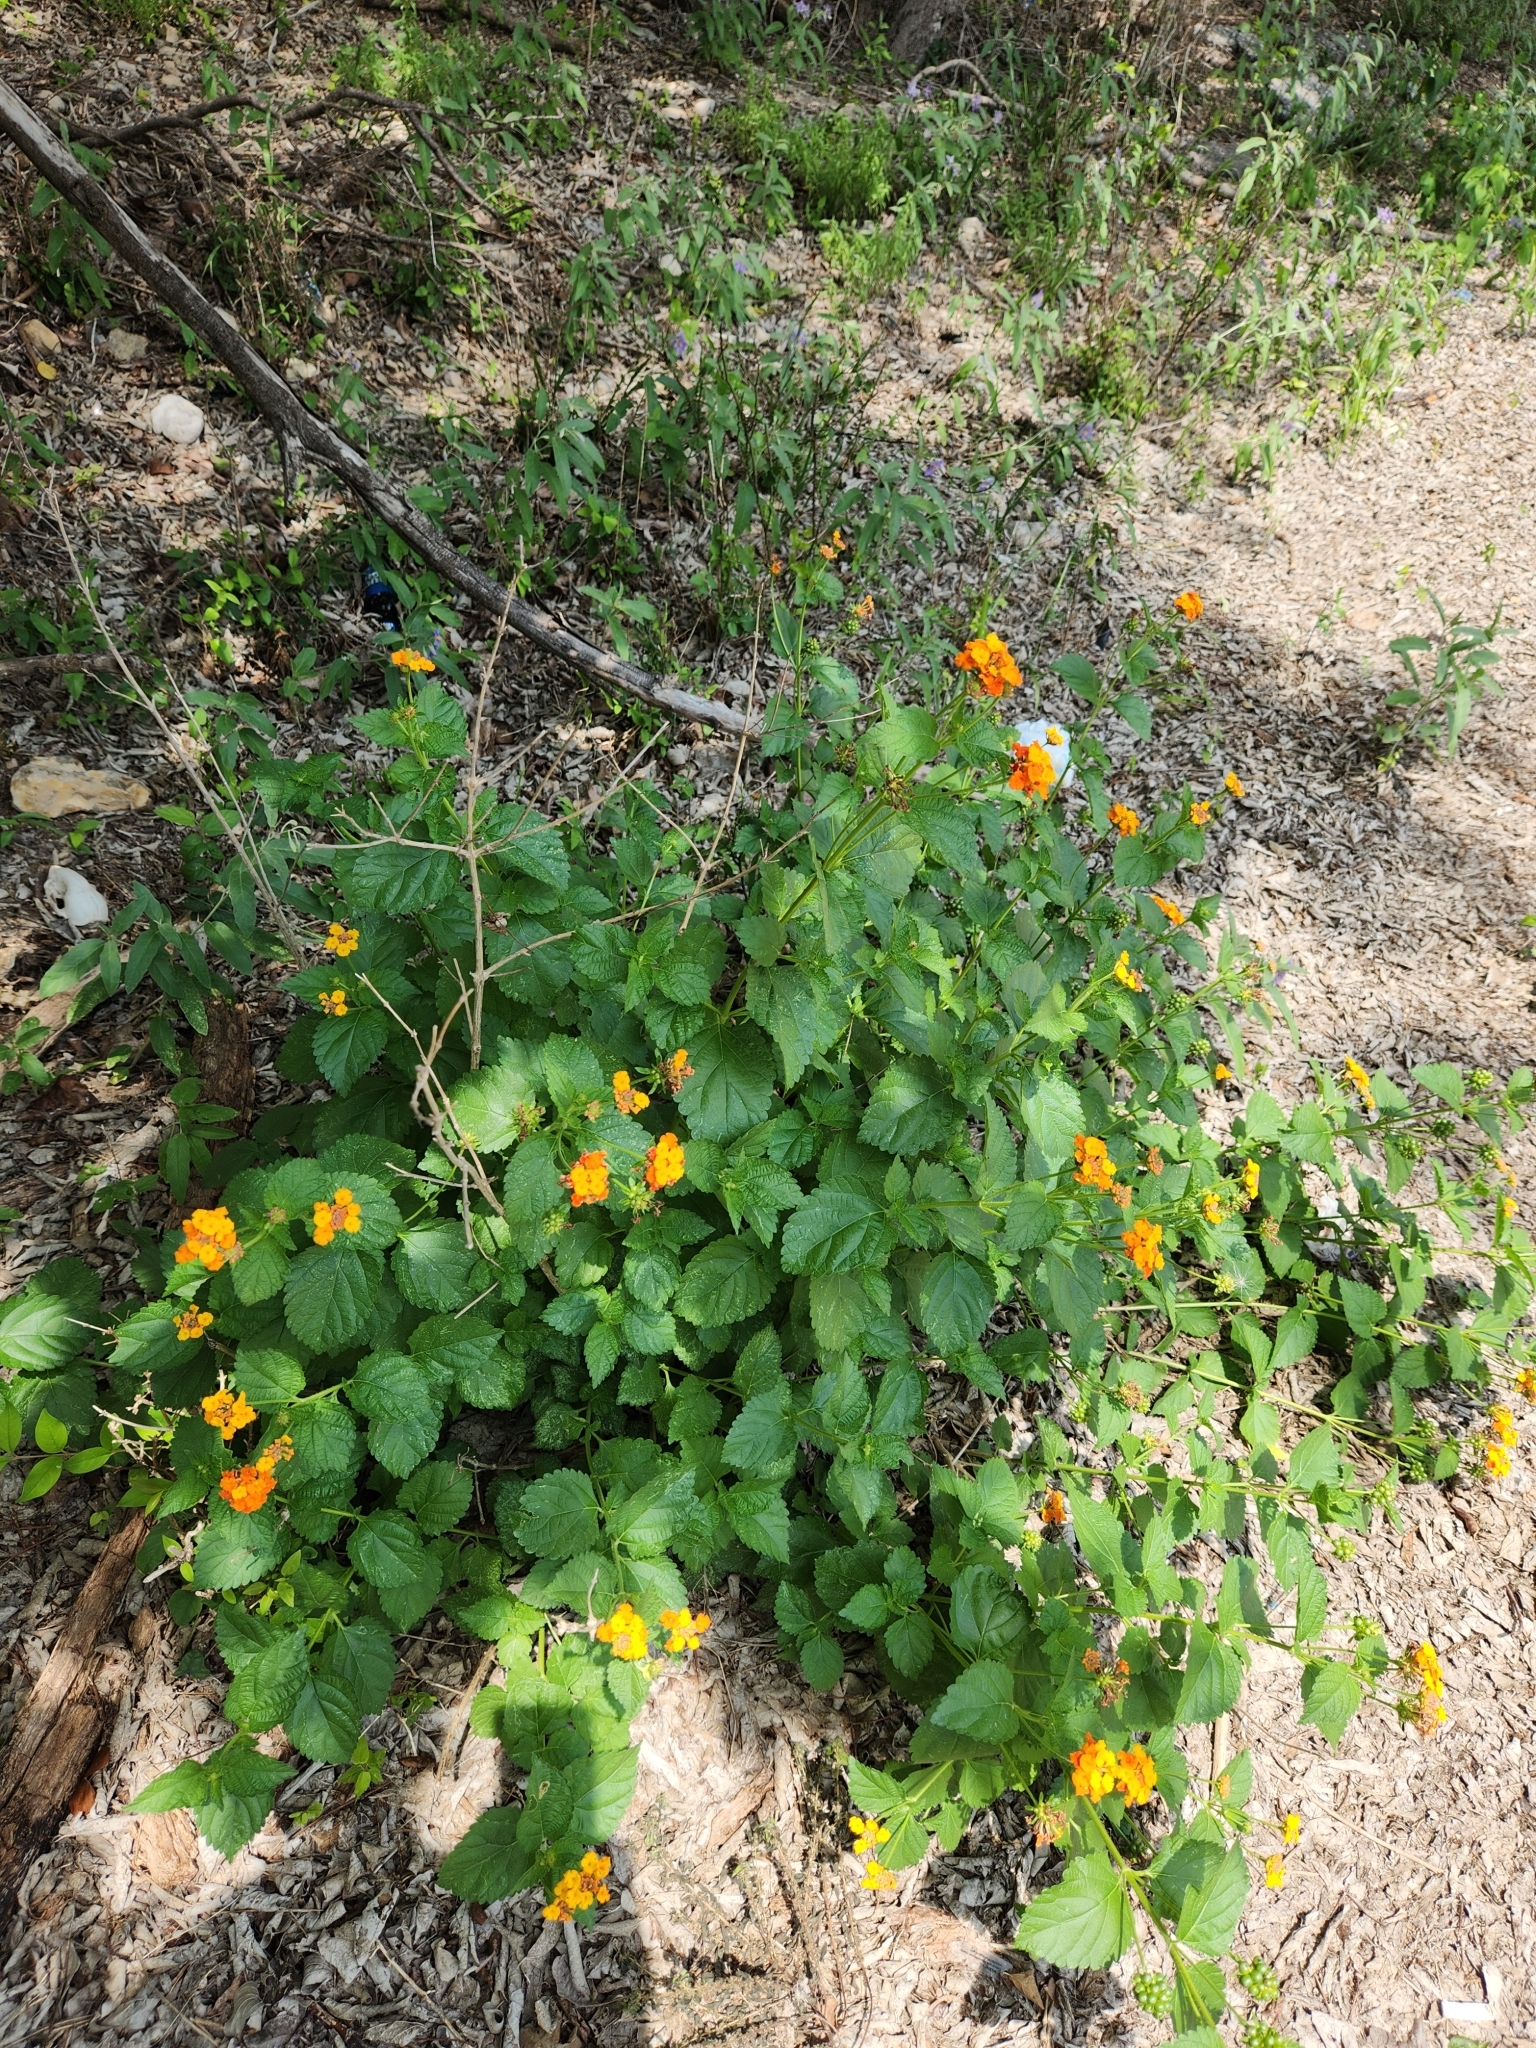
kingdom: Plantae
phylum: Tracheophyta
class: Magnoliopsida
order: Lamiales
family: Verbenaceae
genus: Lantana
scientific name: Lantana urticoides
